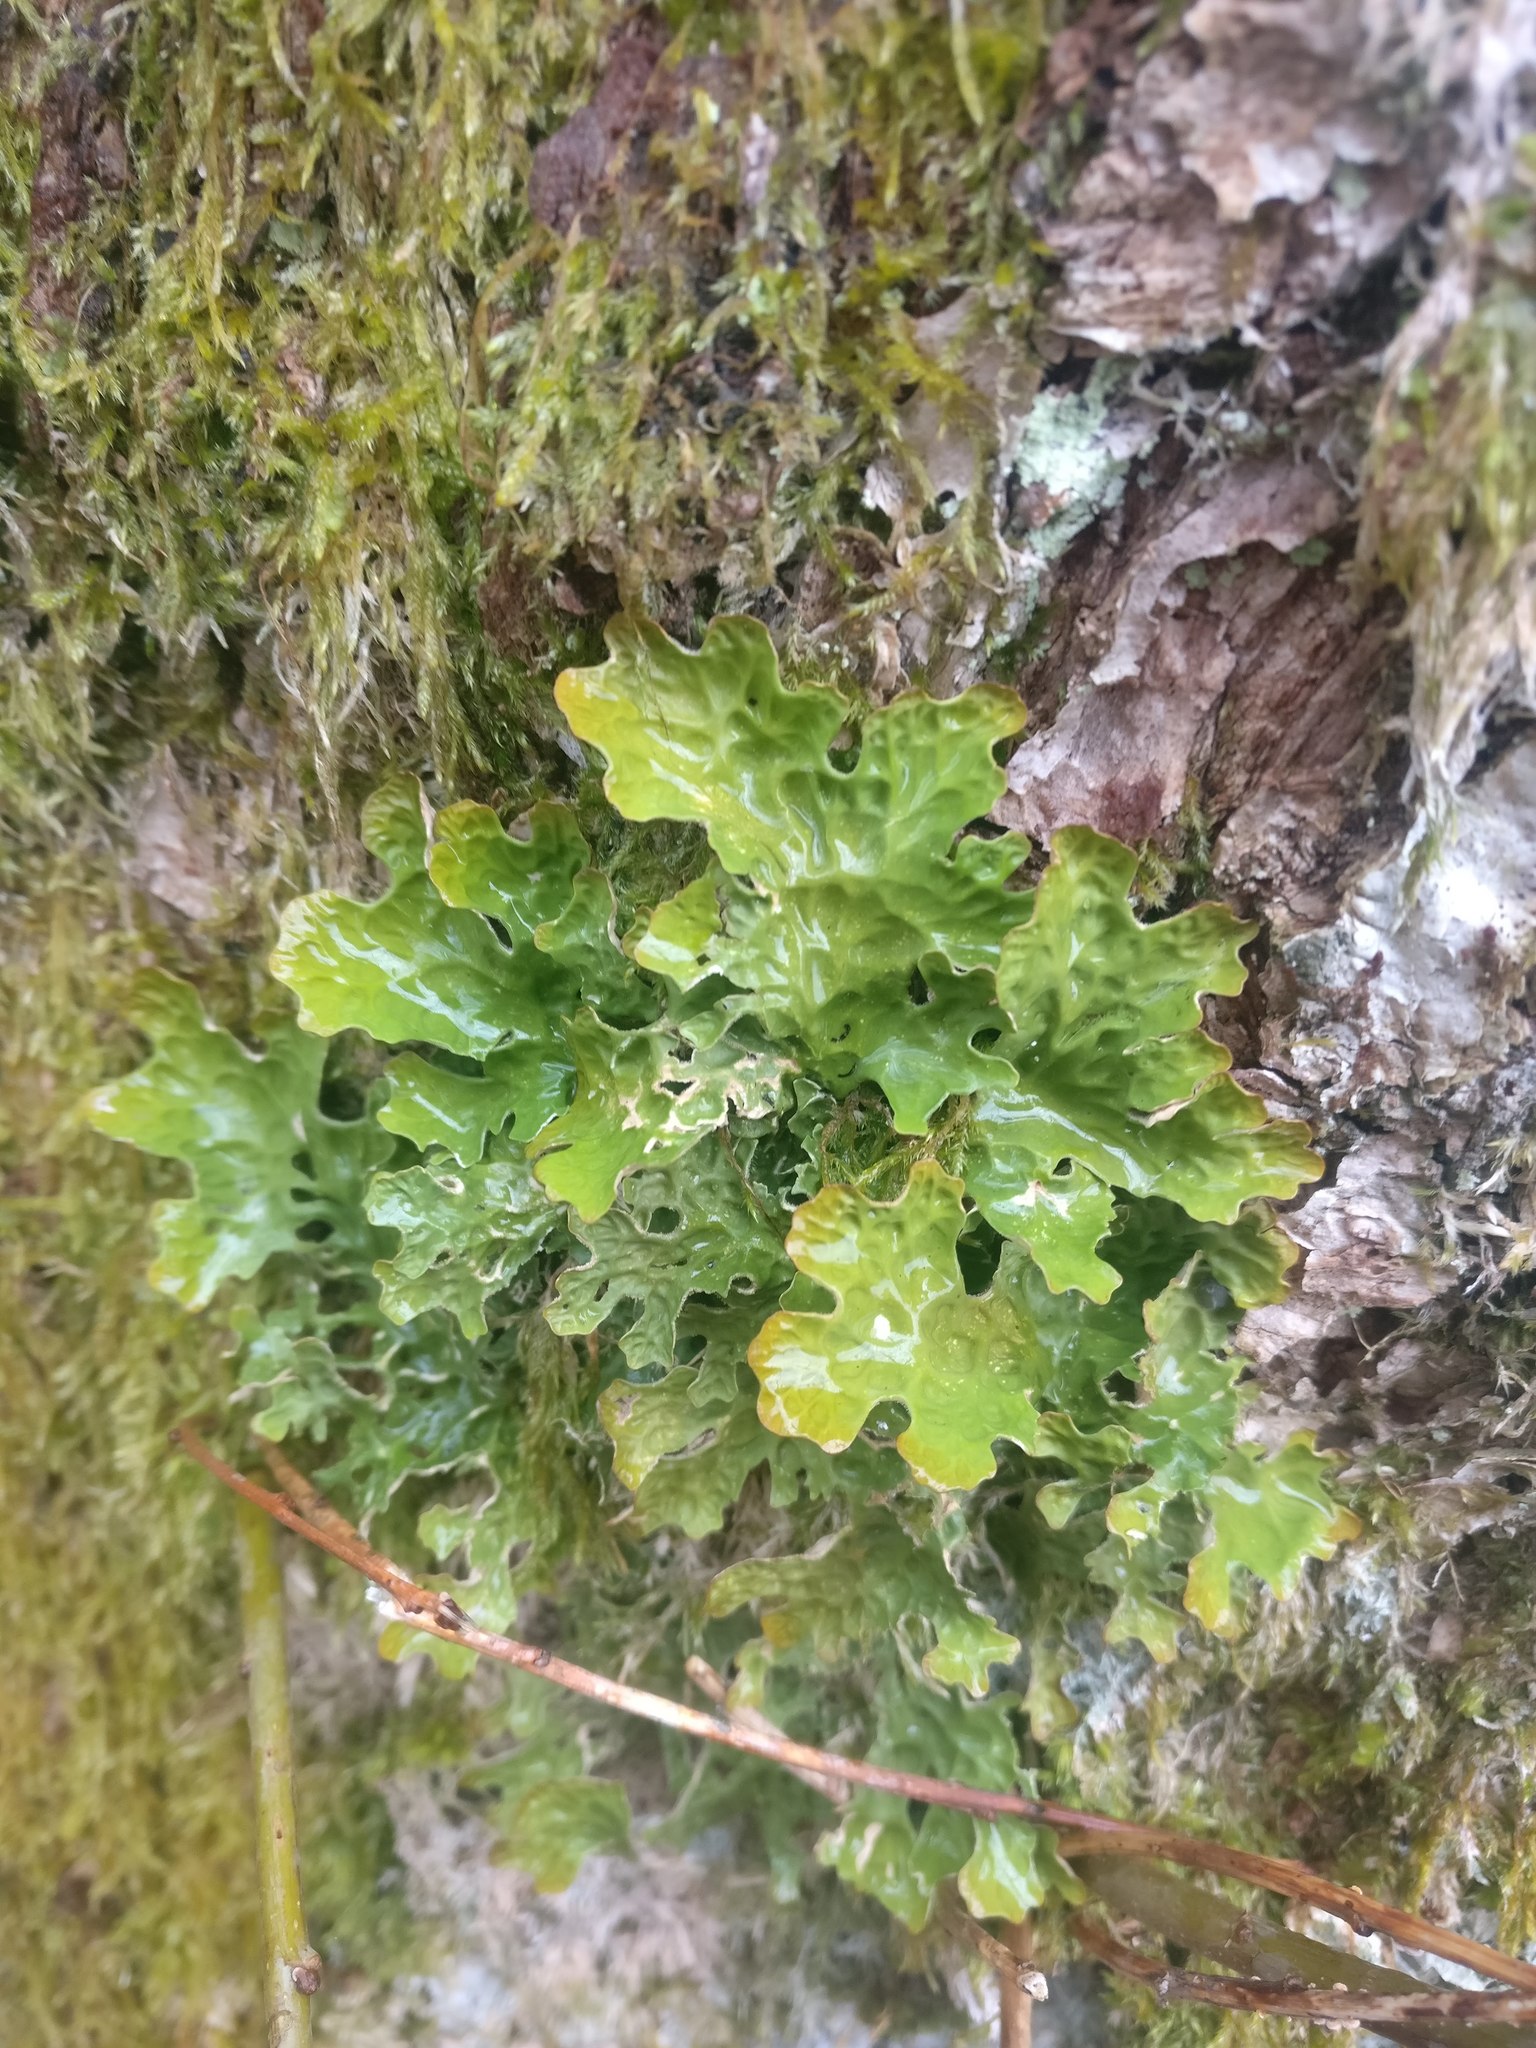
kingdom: Fungi
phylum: Ascomycota
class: Lecanoromycetes
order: Peltigerales
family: Lobariaceae
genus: Lobaria
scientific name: Lobaria pulmonaria
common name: Lungwort
